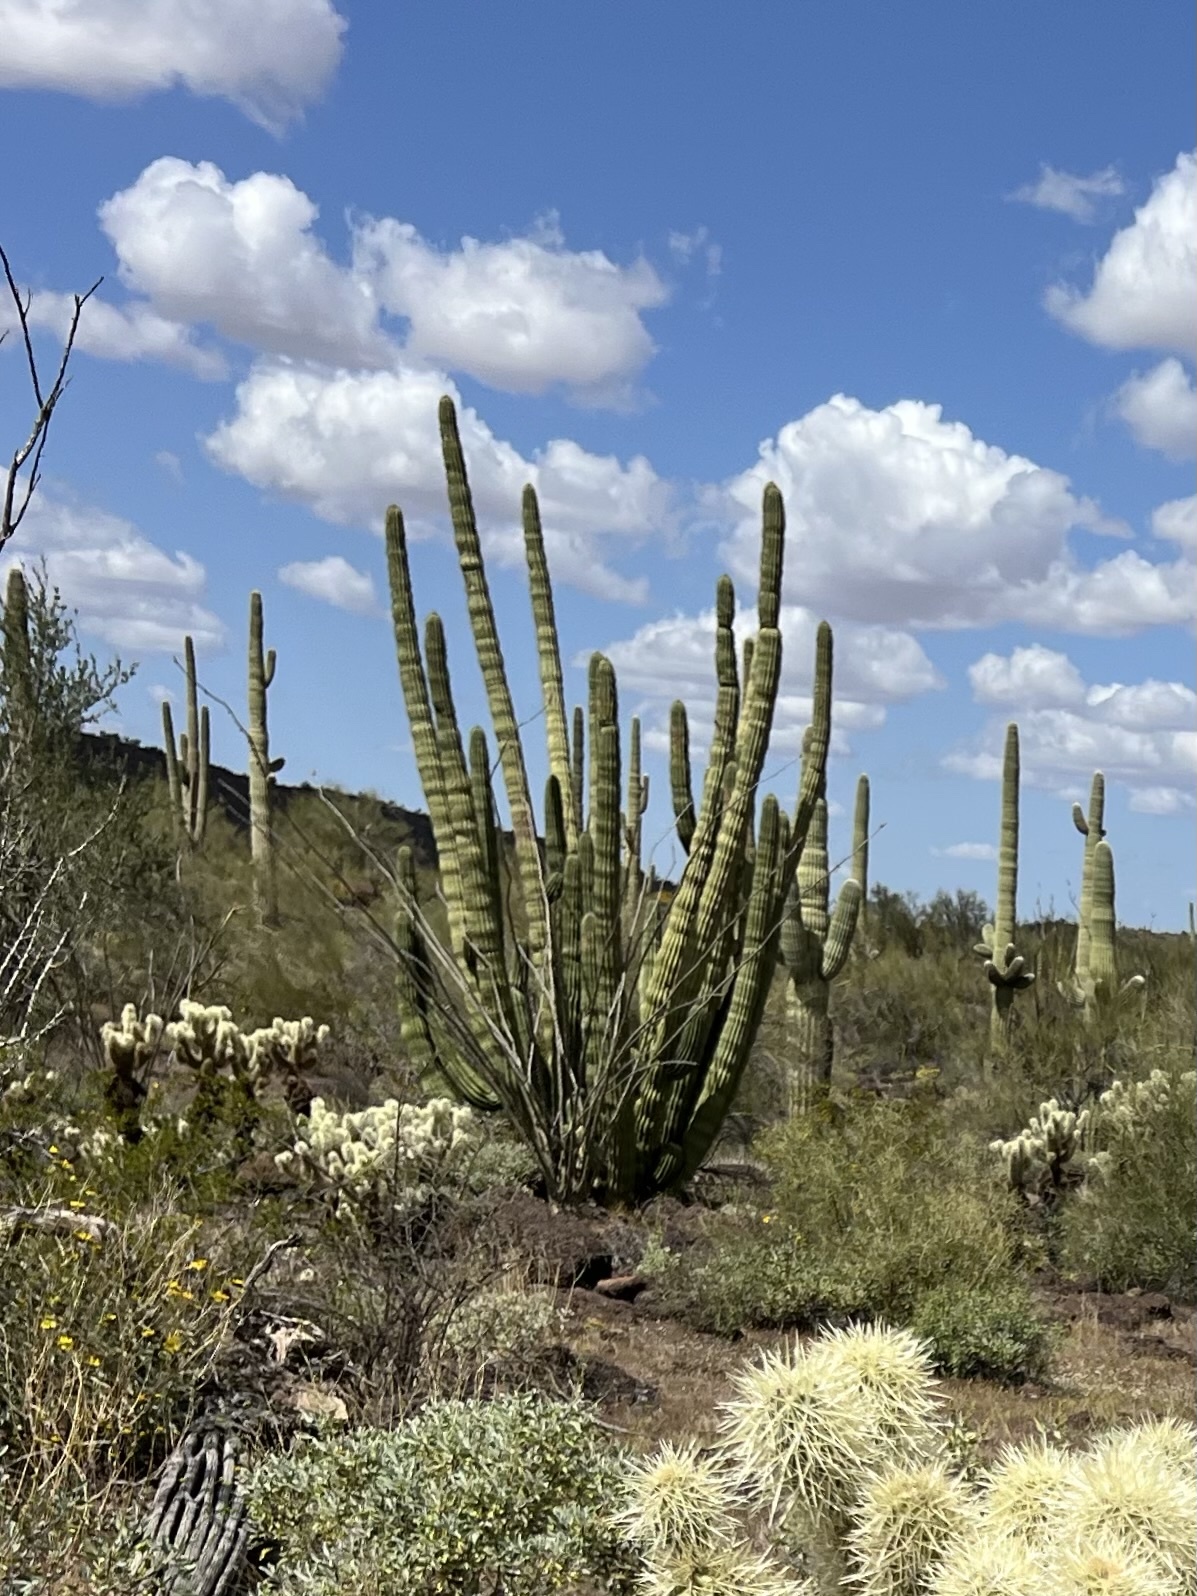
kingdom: Plantae
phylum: Tracheophyta
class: Magnoliopsida
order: Caryophyllales
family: Cactaceae
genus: Stenocereus
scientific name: Stenocereus thurberi
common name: Organ pipe cactus
